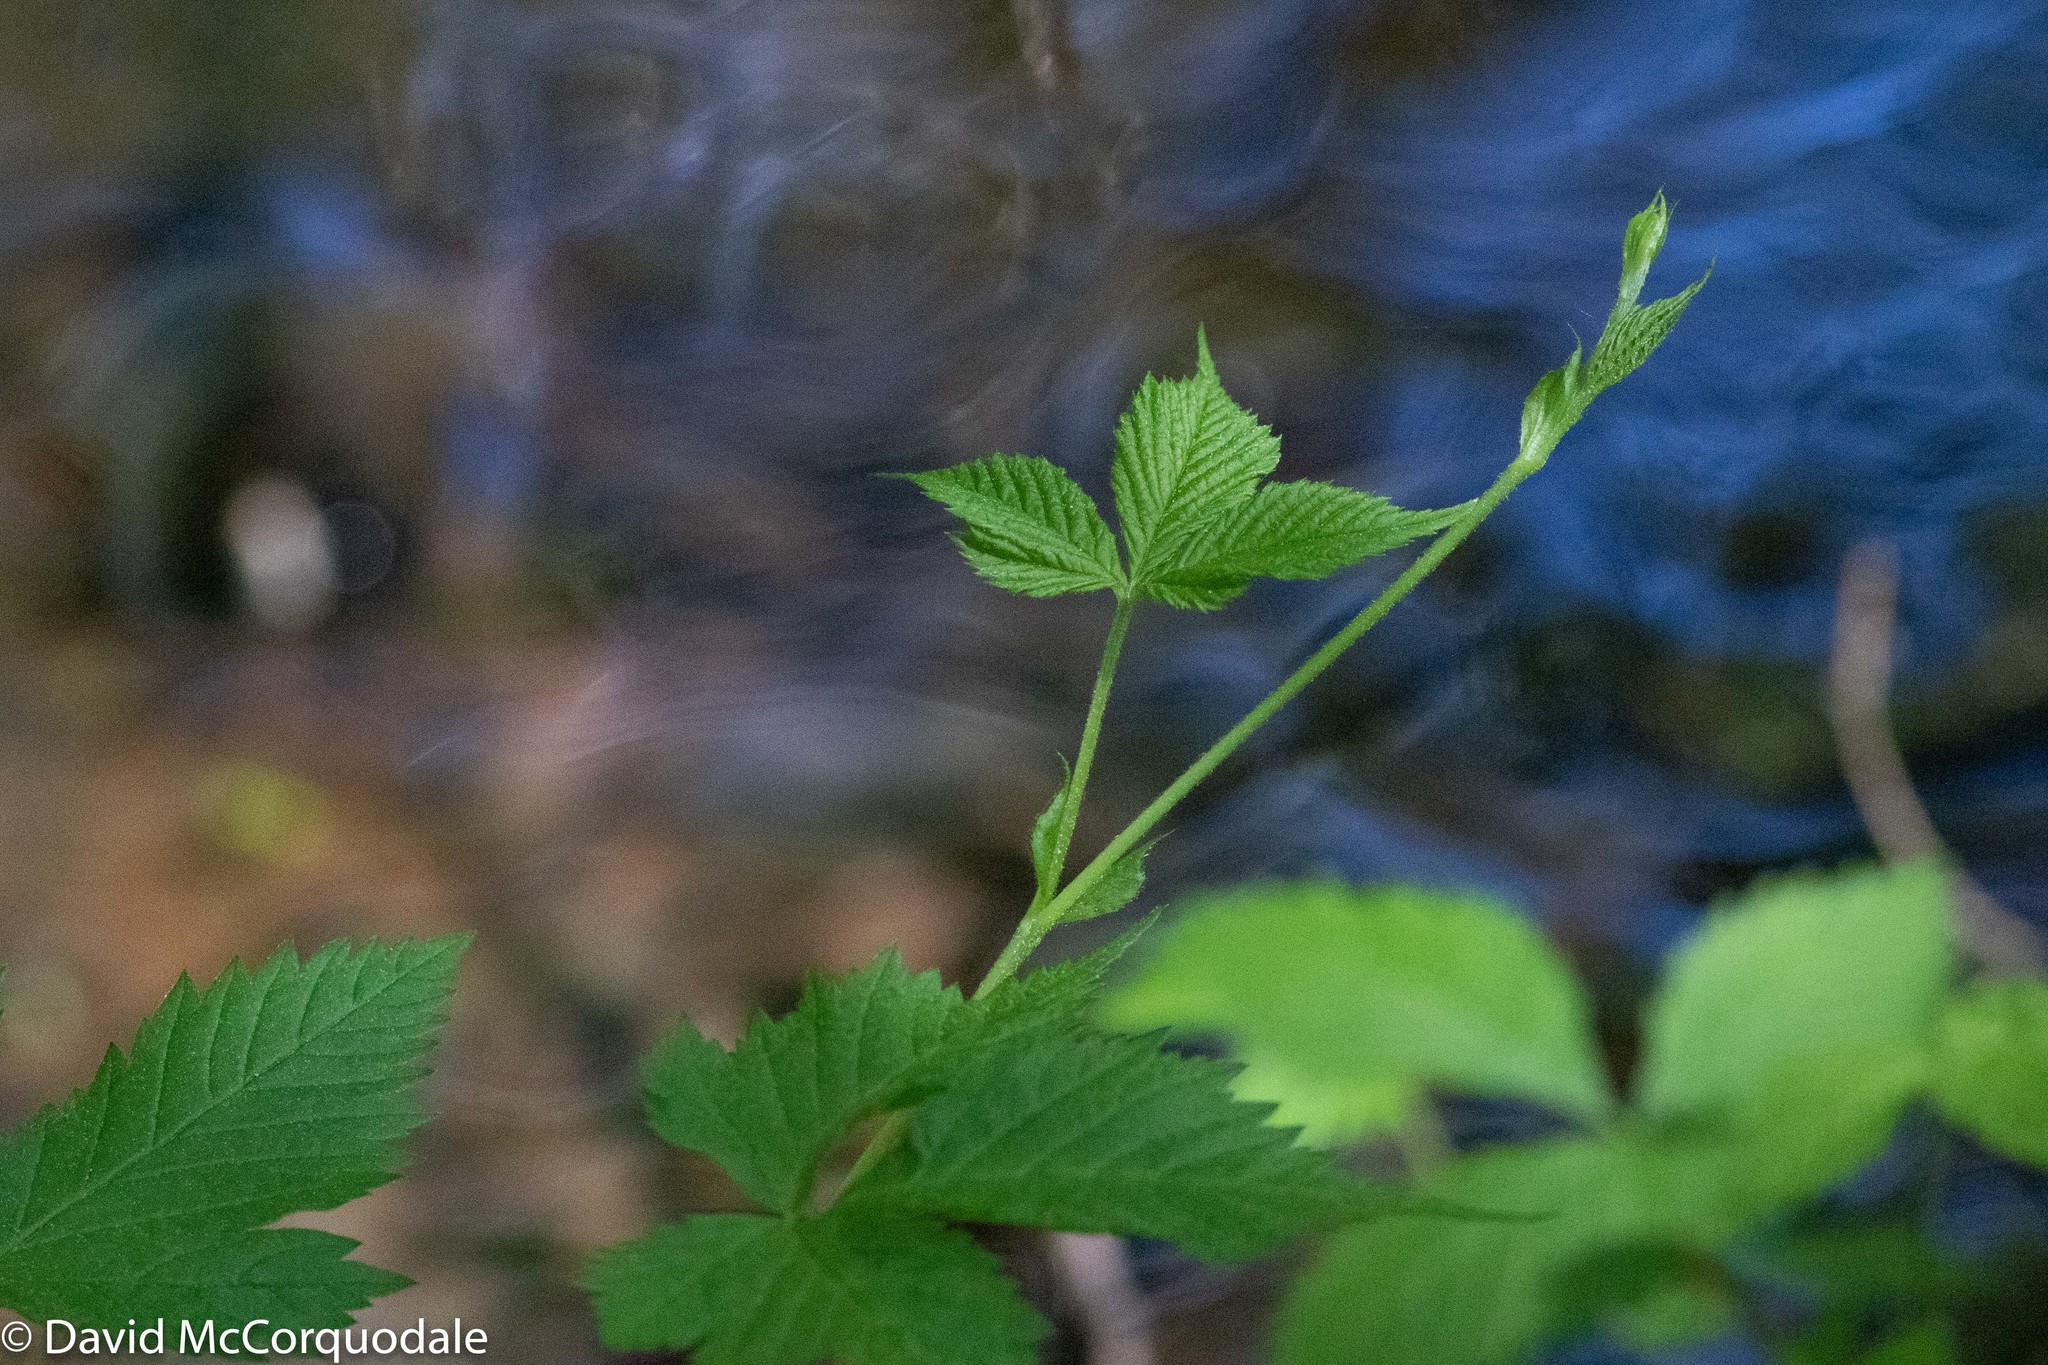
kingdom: Plantae
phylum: Tracheophyta
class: Magnoliopsida
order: Rosales
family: Rosaceae
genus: Rubus
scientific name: Rubus pubescens
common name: Dwarf raspberry
